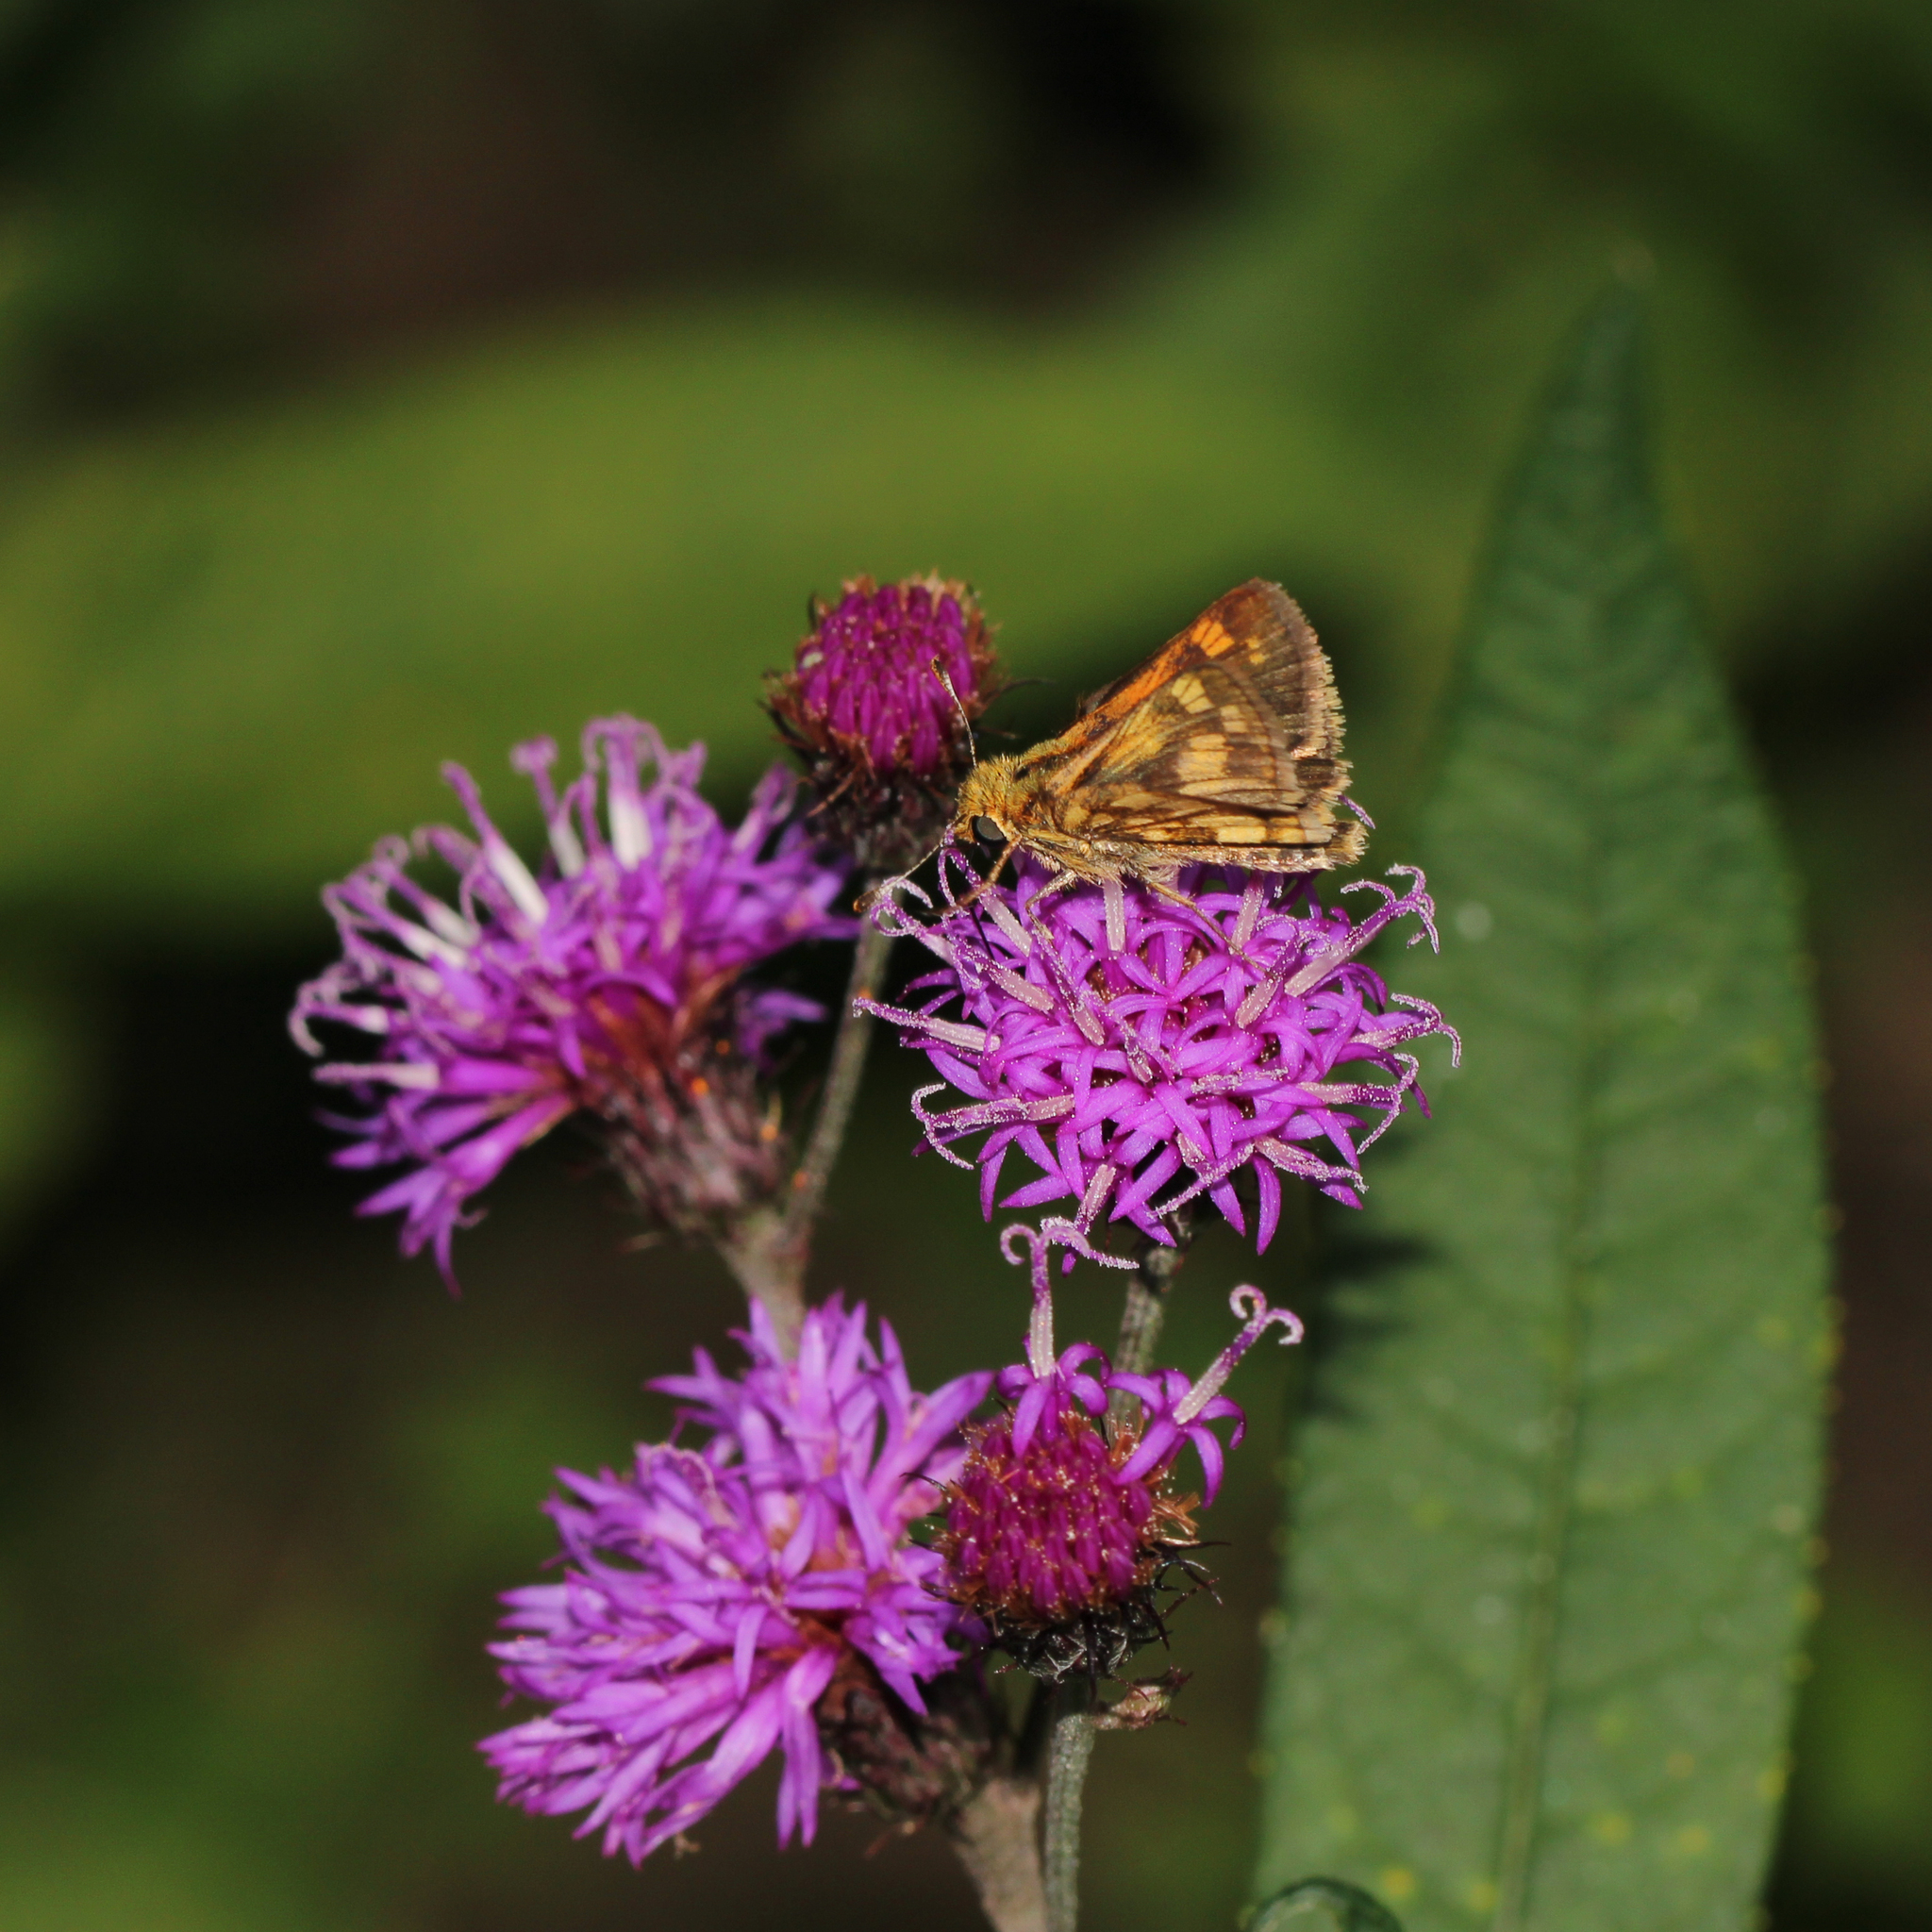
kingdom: Animalia
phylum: Arthropoda
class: Insecta
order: Lepidoptera
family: Hesperiidae
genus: Polites
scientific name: Polites coras
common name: Peck's skipper
